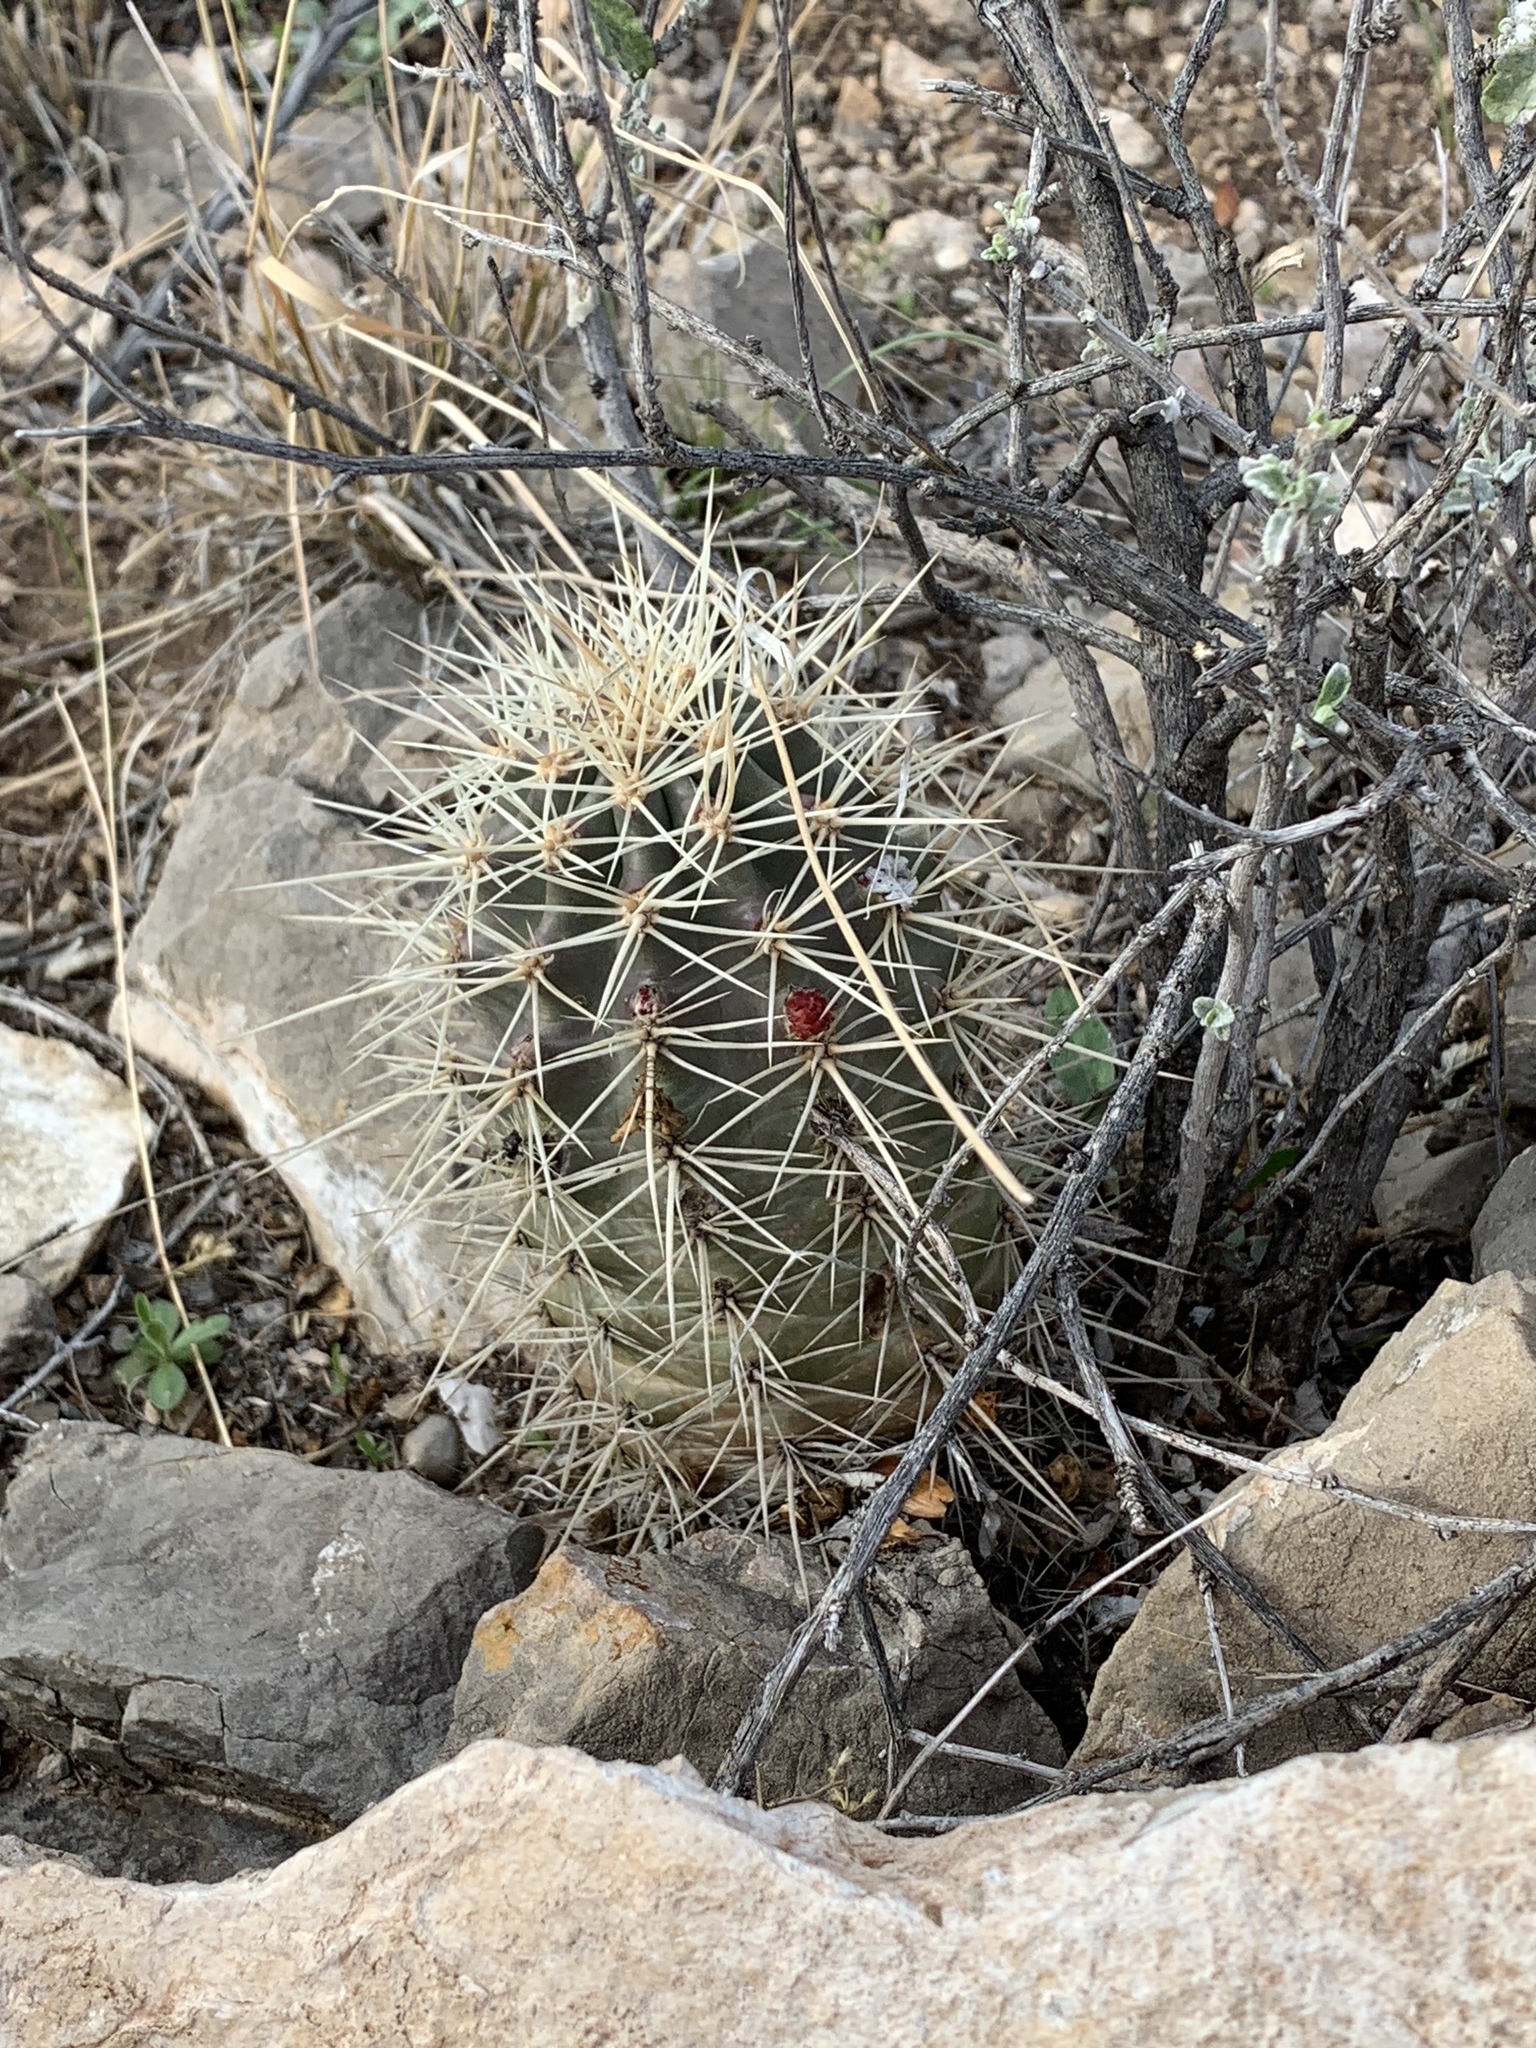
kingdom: Plantae
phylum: Tracheophyta
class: Magnoliopsida
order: Caryophyllales
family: Cactaceae
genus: Echinocereus
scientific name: Echinocereus coccineus
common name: Scarlet hedgehog cactus
